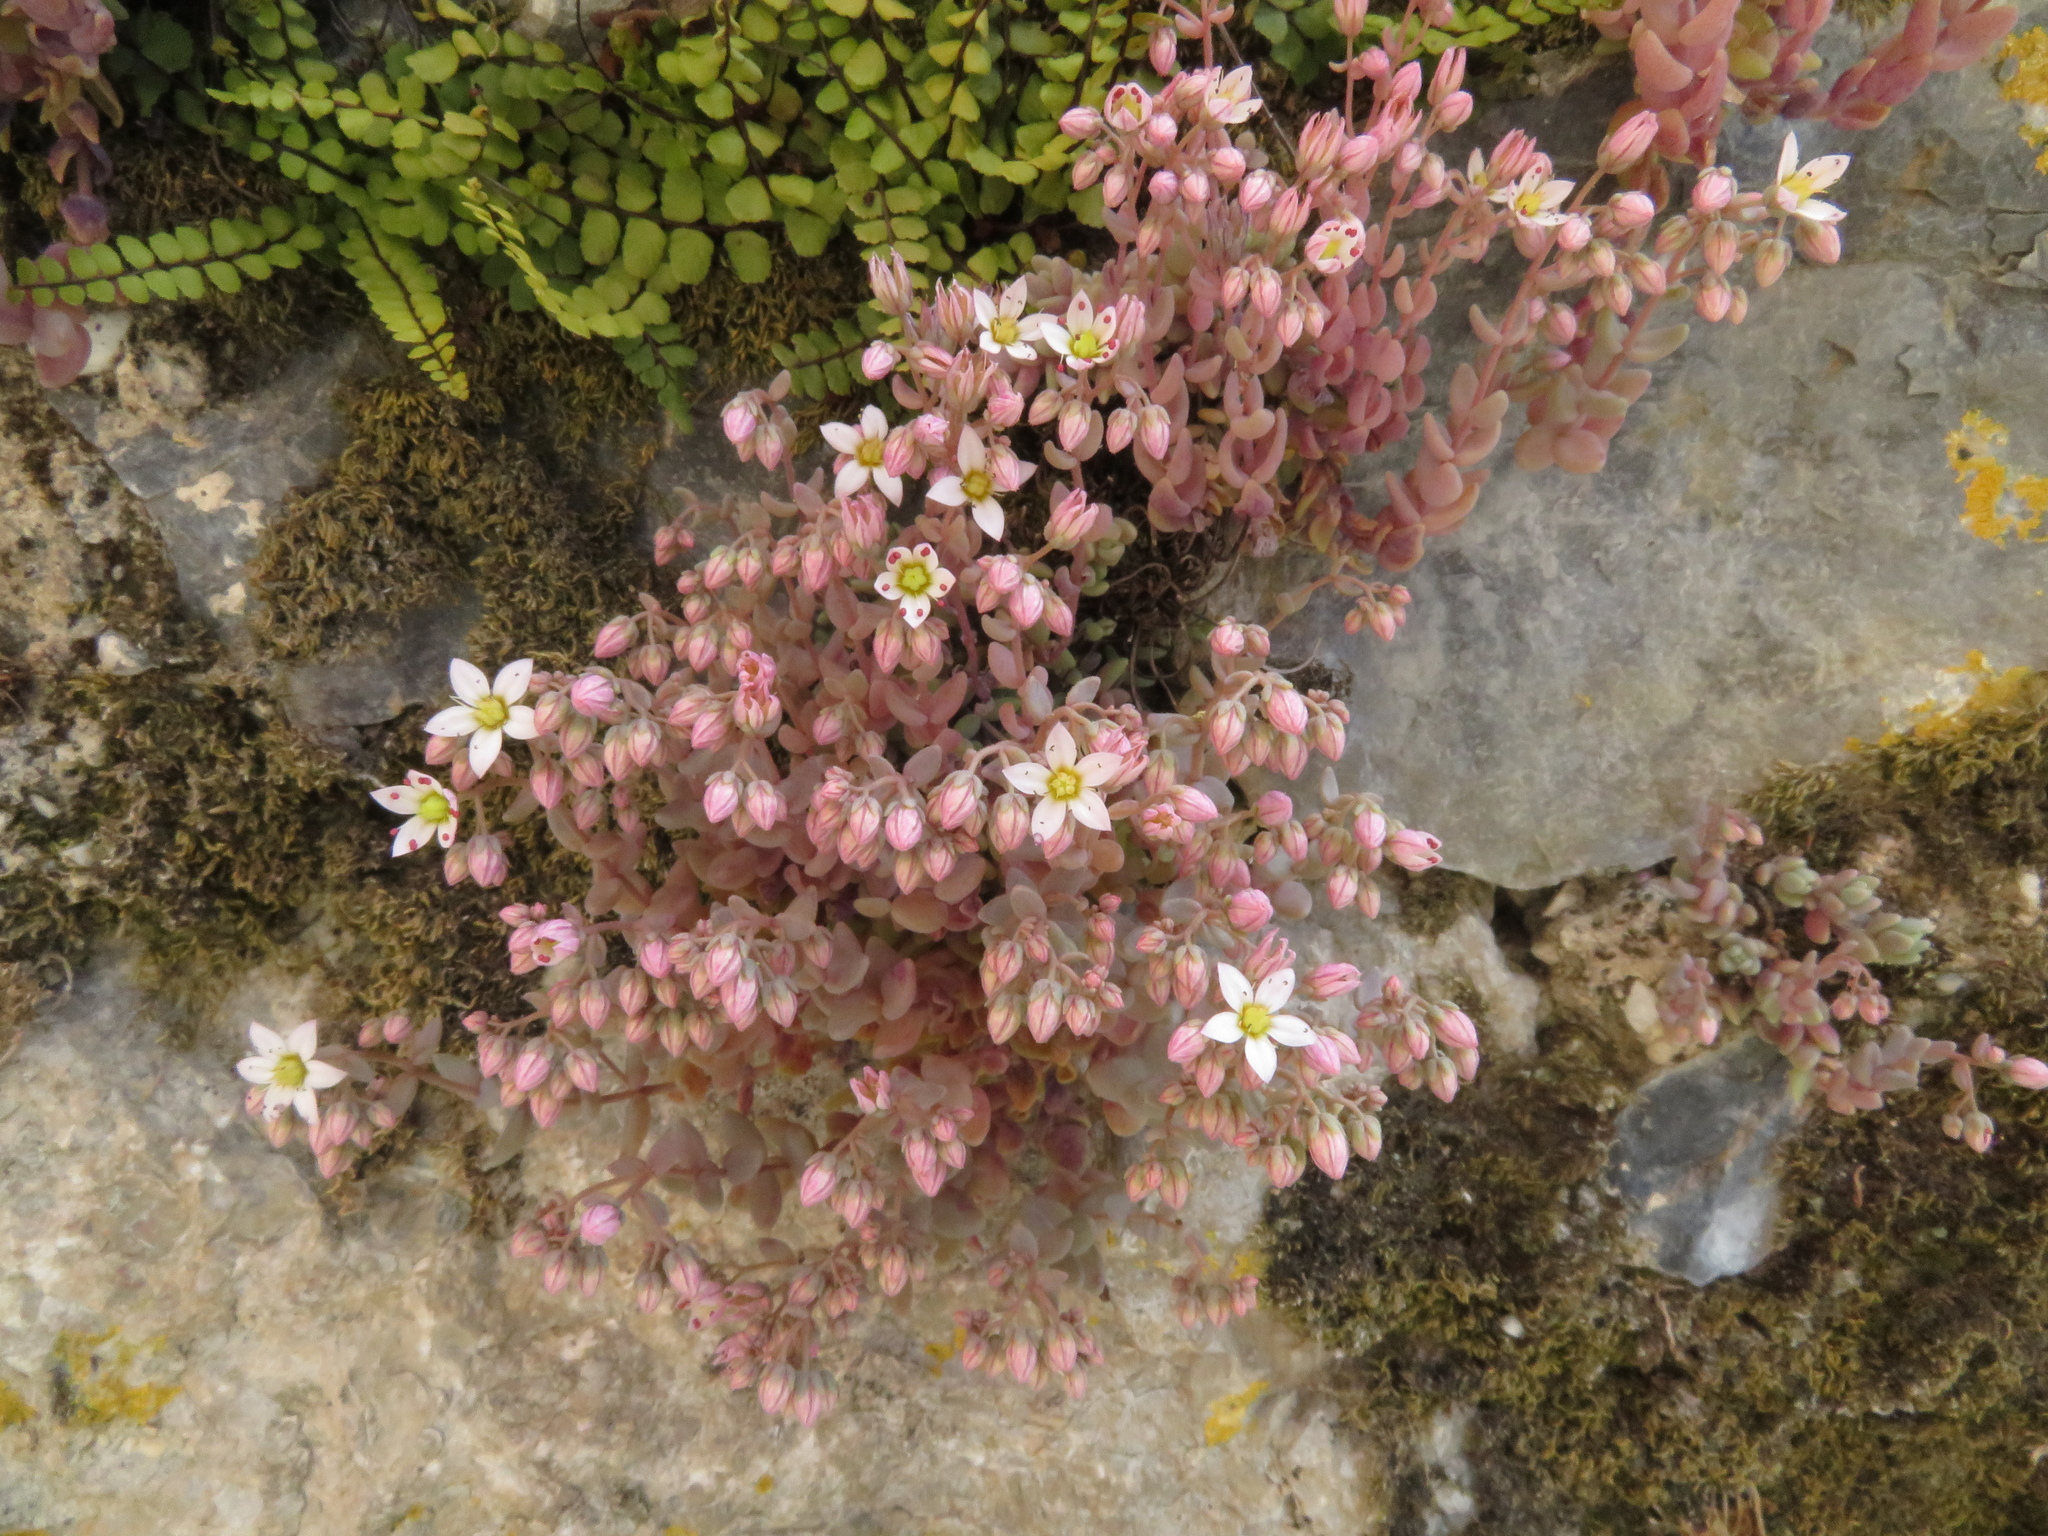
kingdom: Plantae
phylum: Tracheophyta
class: Magnoliopsida
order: Saxifragales
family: Crassulaceae
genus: Sedum
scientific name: Sedum dasyphyllum
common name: Thick-leaf stonecrop
